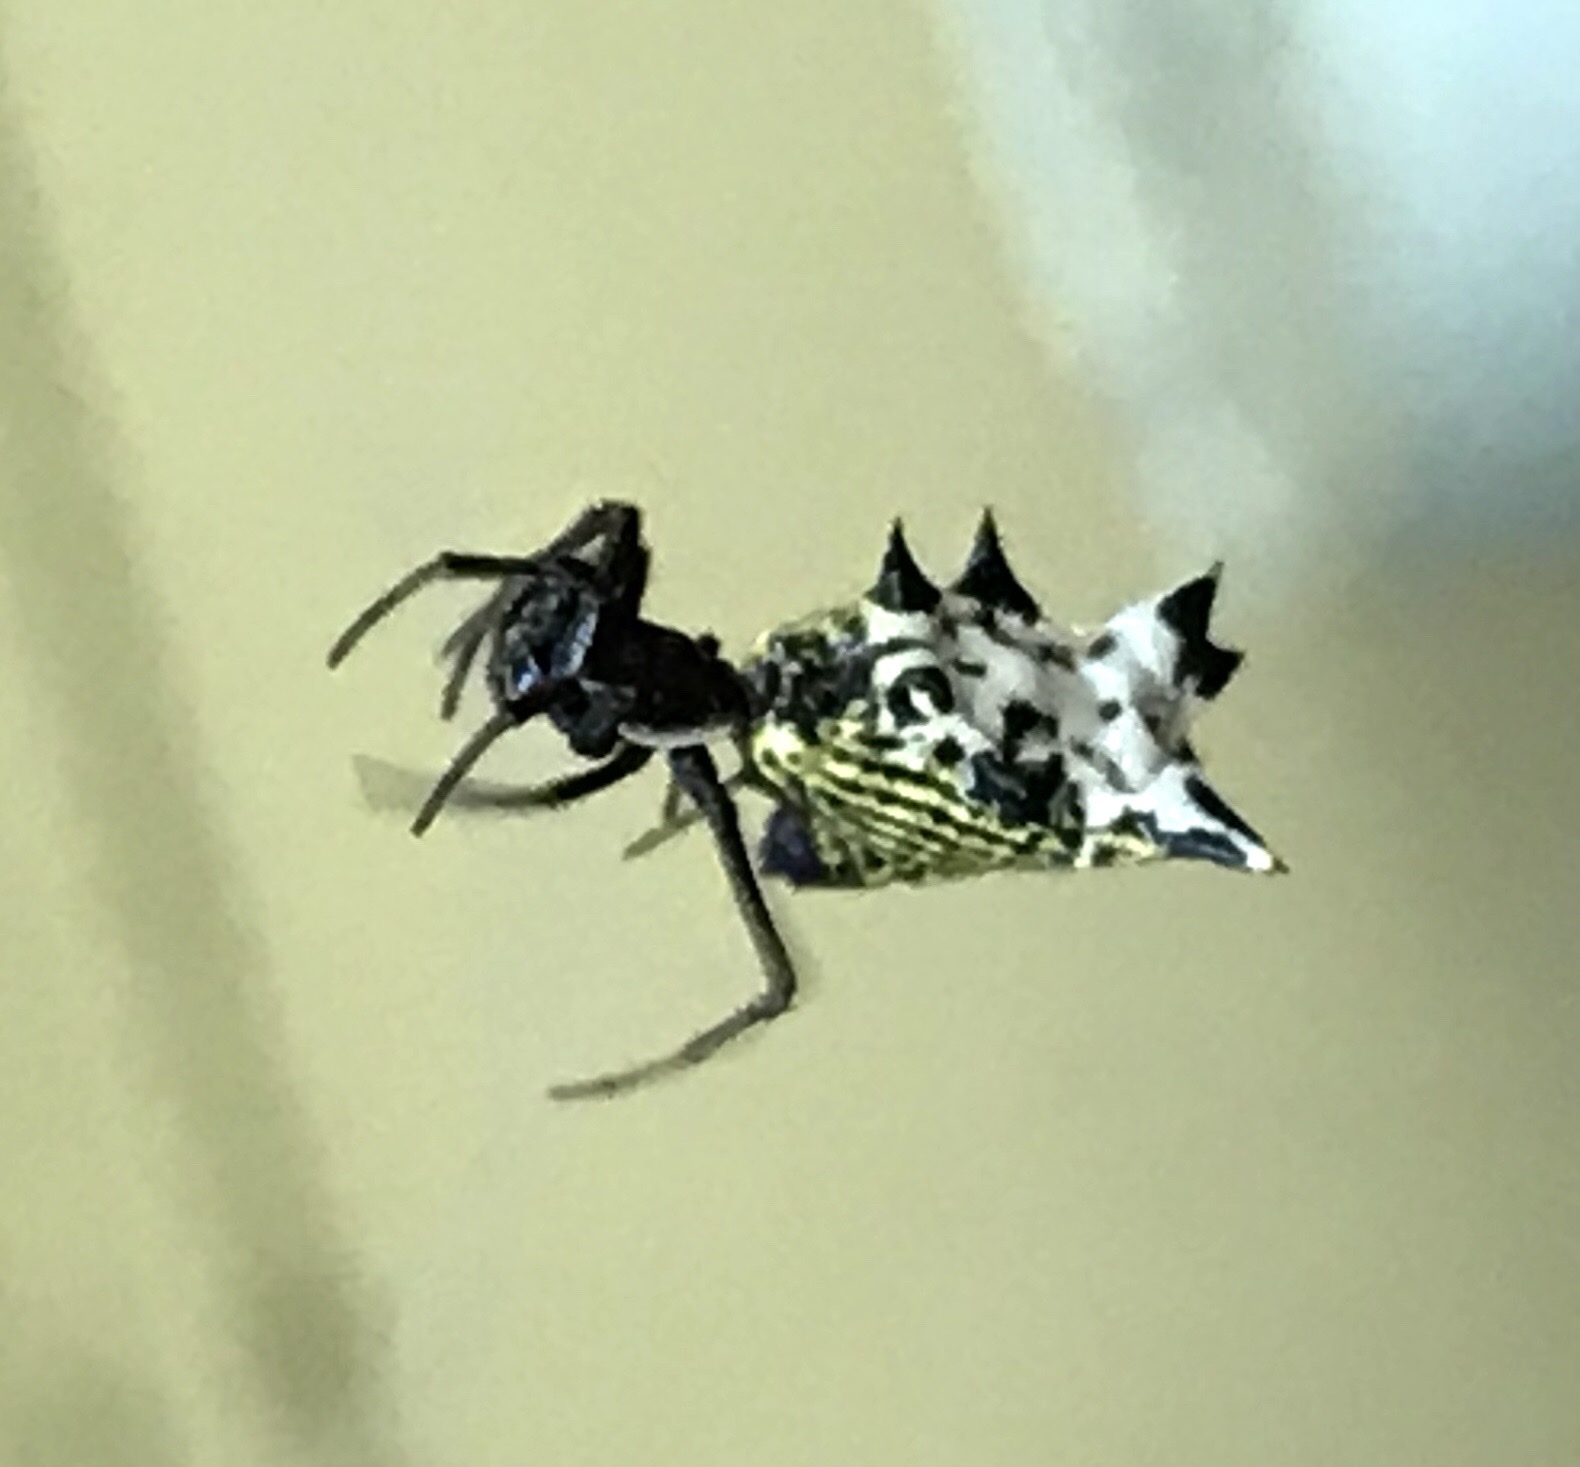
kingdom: Animalia
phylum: Arthropoda
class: Arachnida
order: Araneae
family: Araneidae
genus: Micrathena
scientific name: Micrathena gracilis
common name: Orb weavers
